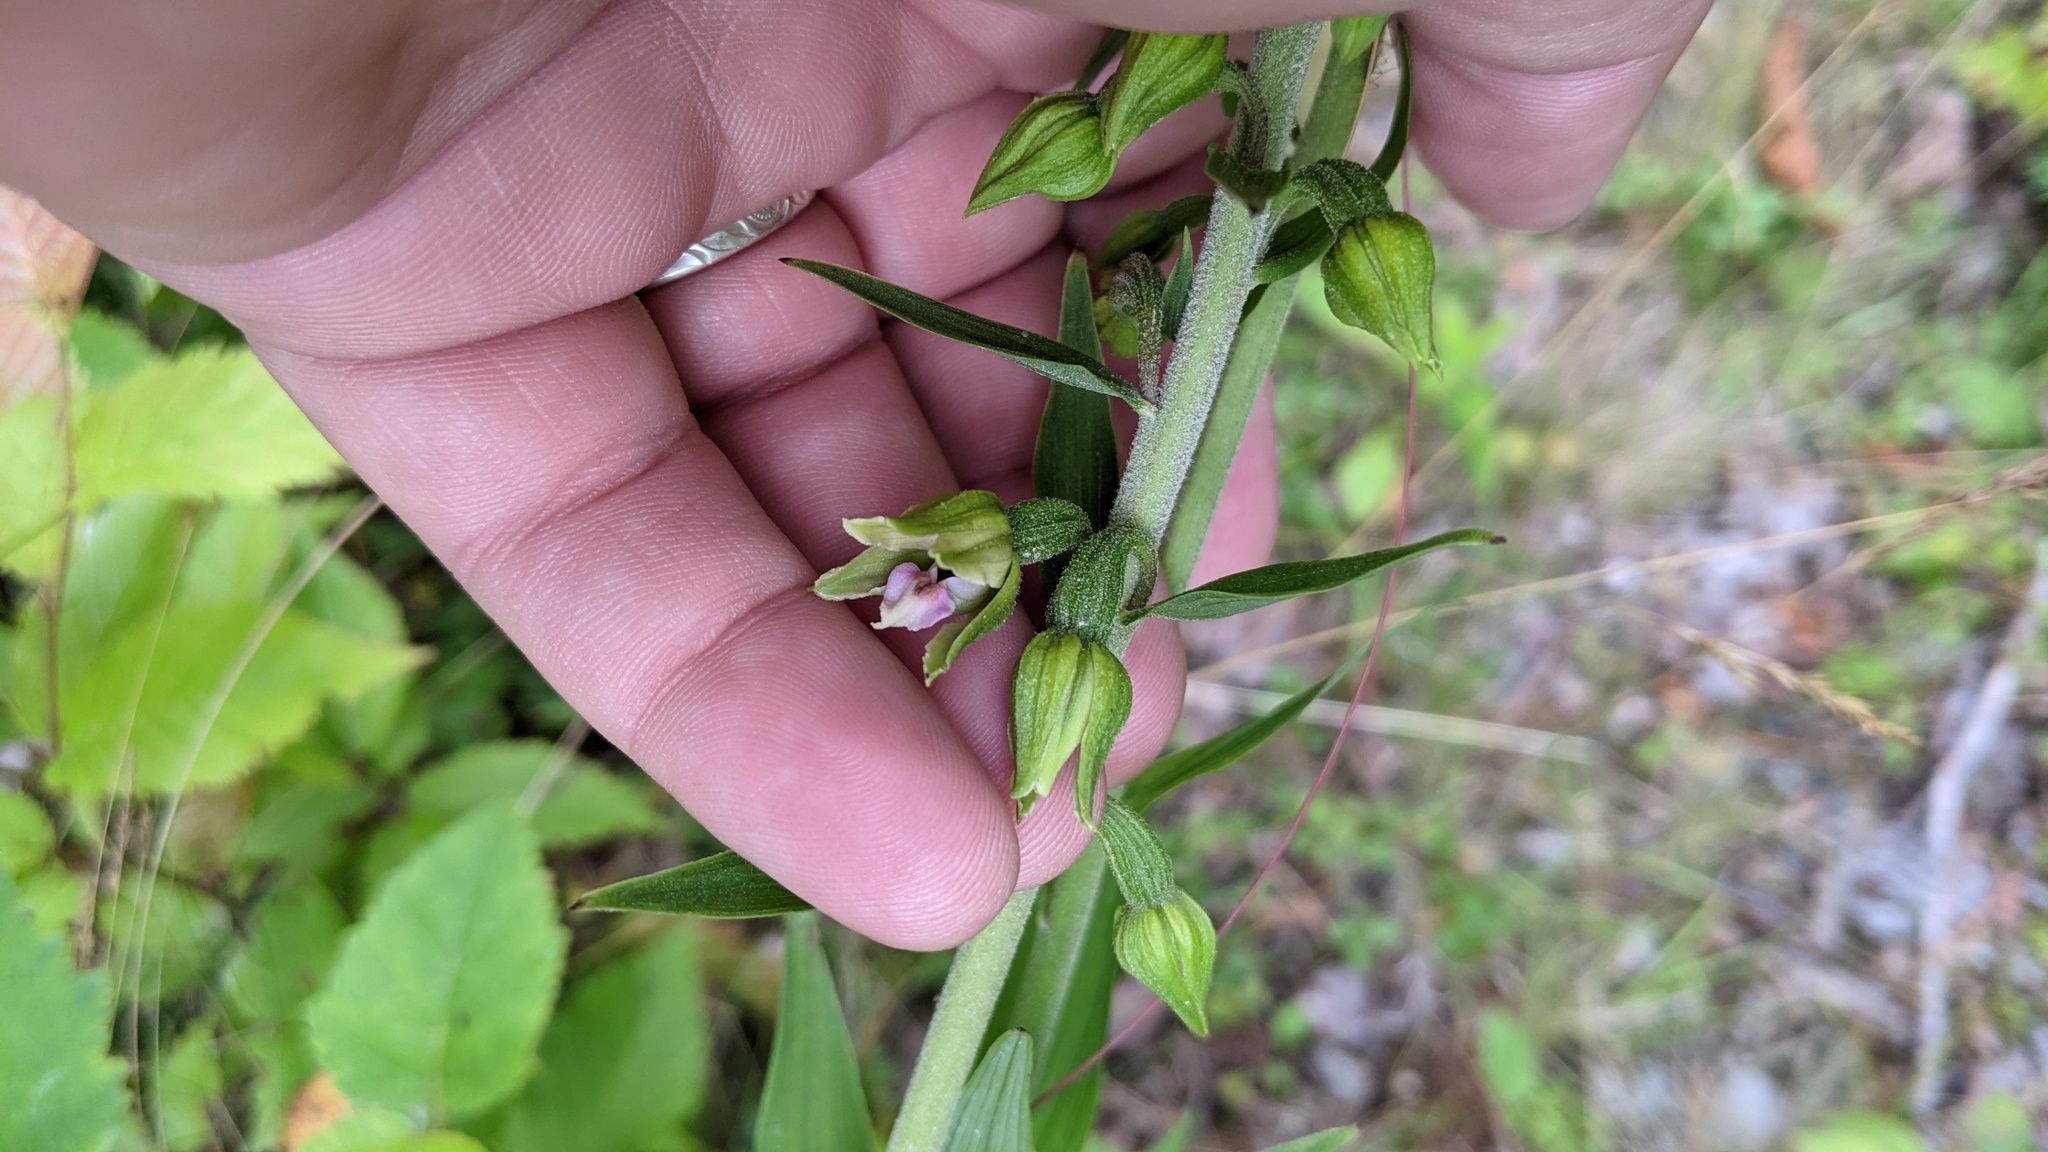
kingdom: Plantae
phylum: Tracheophyta
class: Liliopsida
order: Asparagales
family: Orchidaceae
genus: Epipactis
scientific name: Epipactis helleborine
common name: Broad-leaved helleborine
